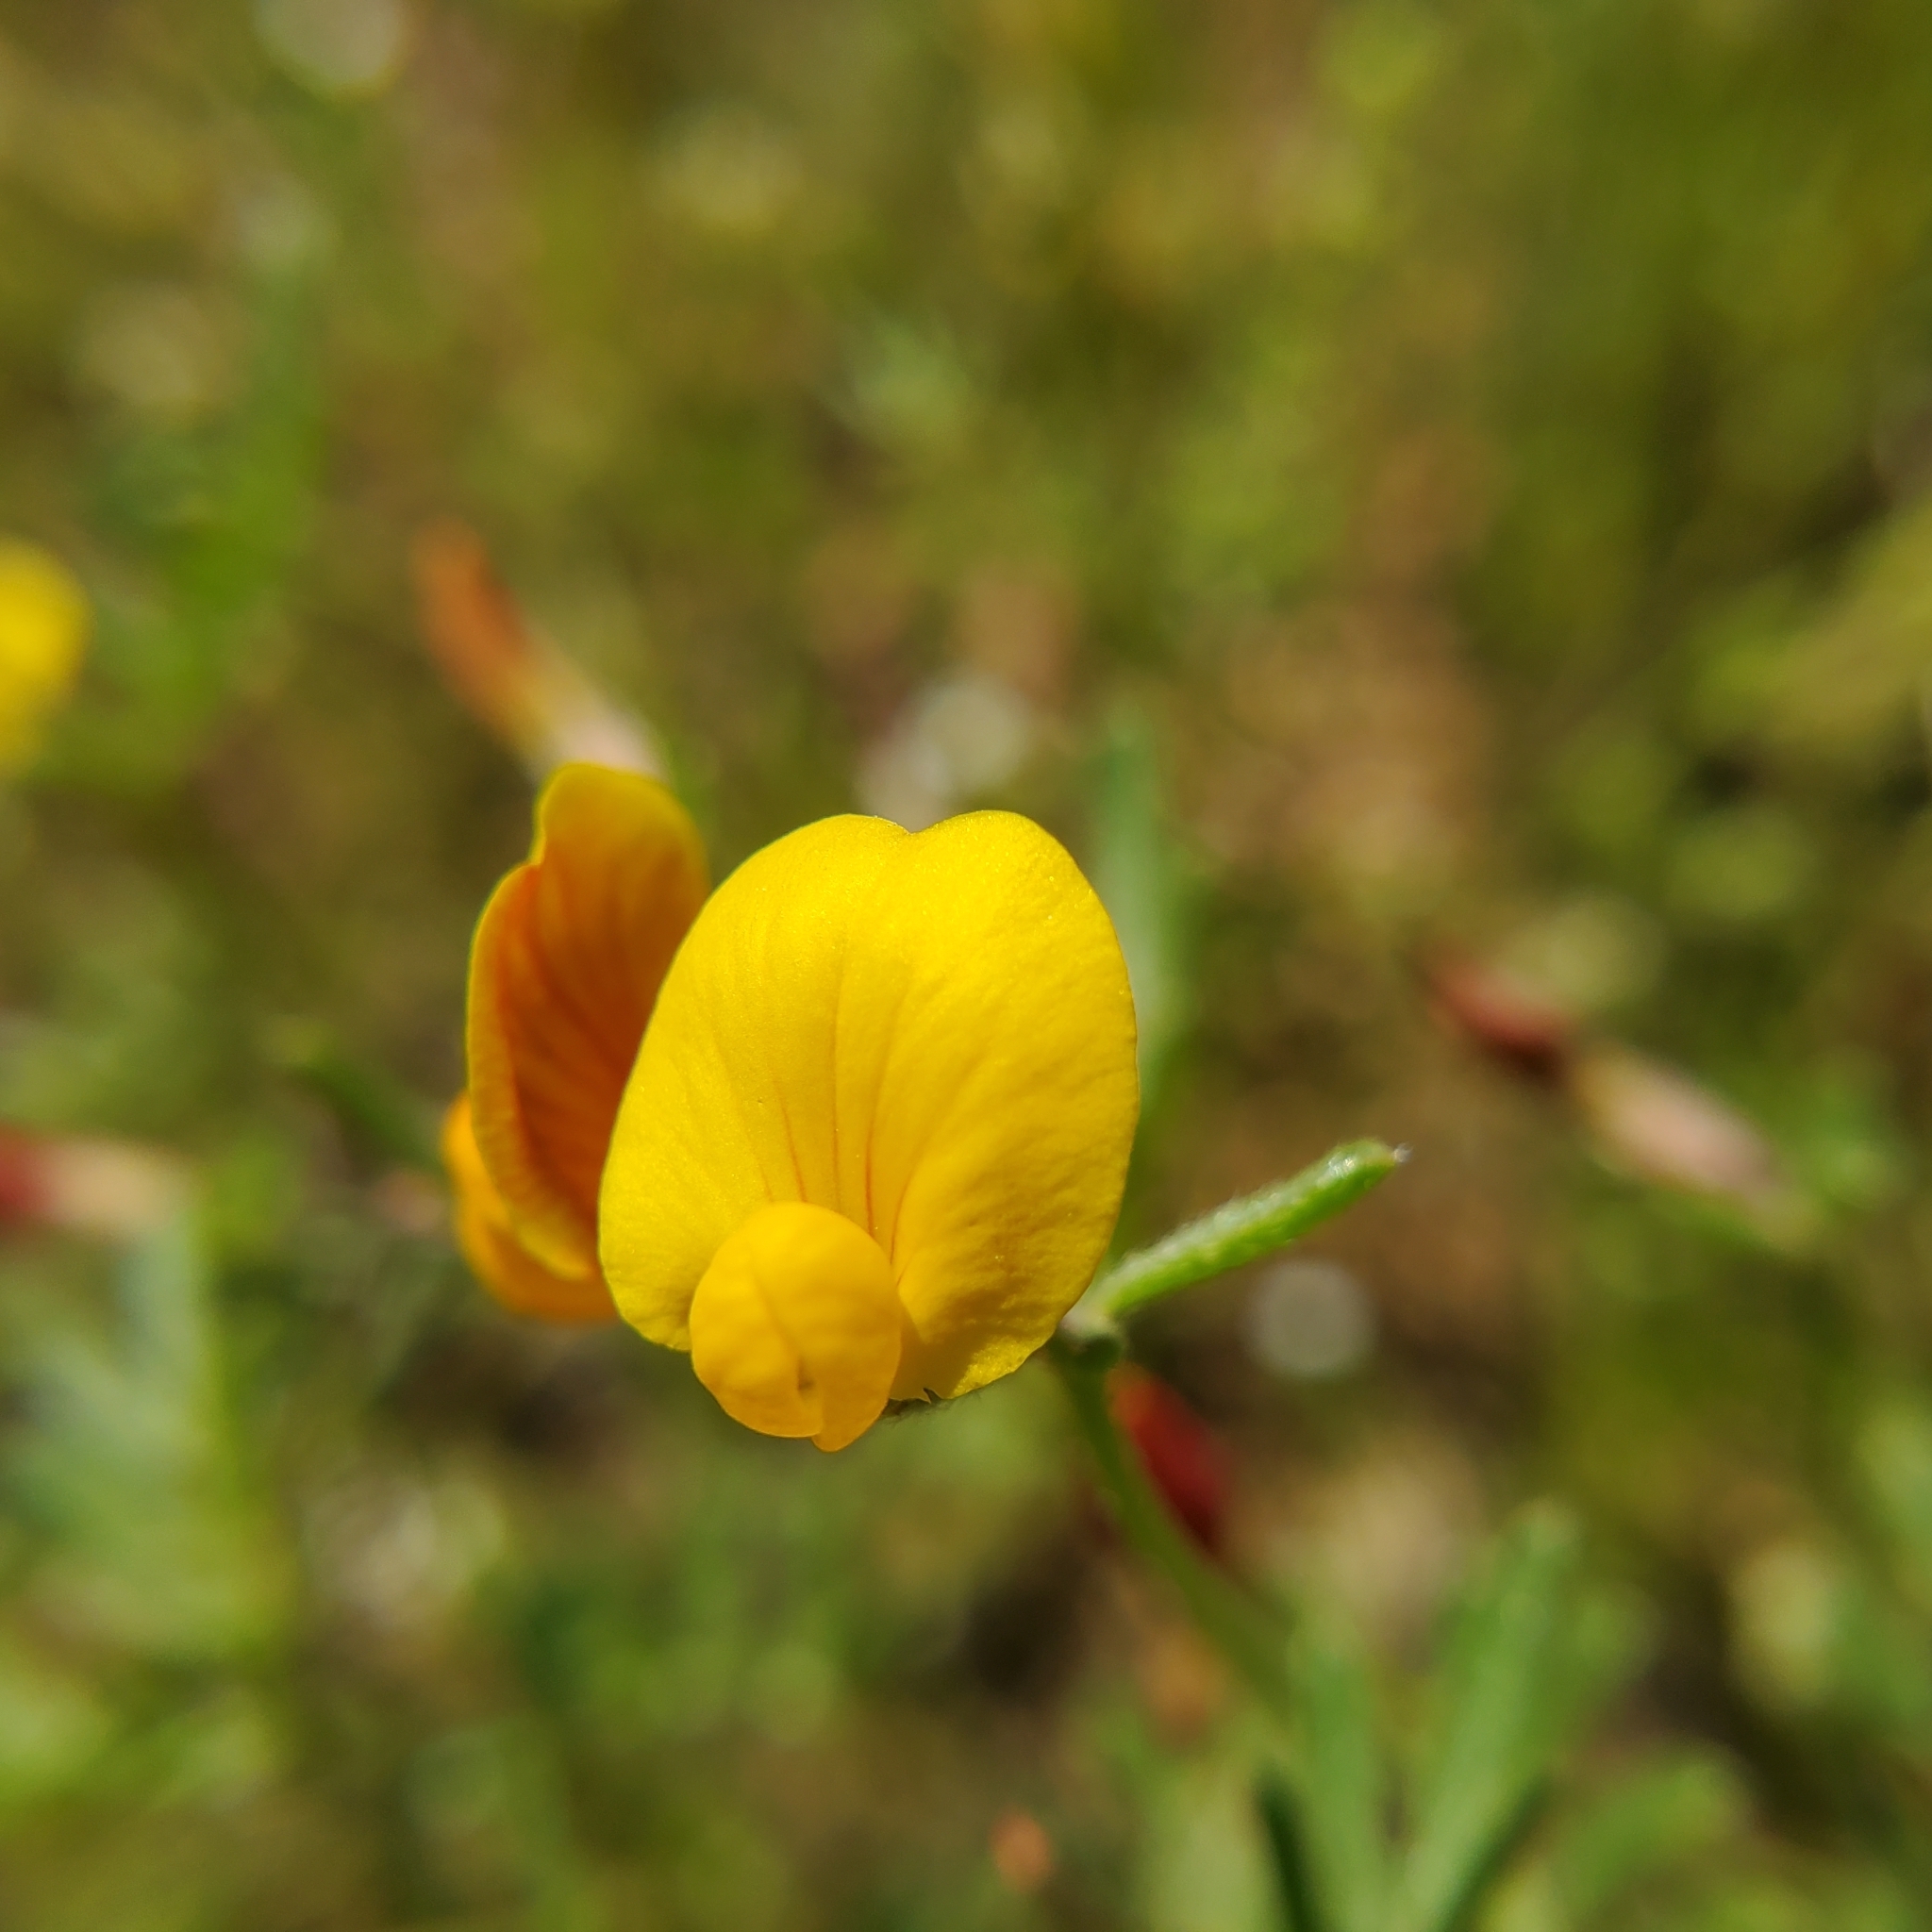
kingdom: Plantae
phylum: Tracheophyta
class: Magnoliopsida
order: Fabales
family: Fabaceae
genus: Acmispon
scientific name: Acmispon strigosus
